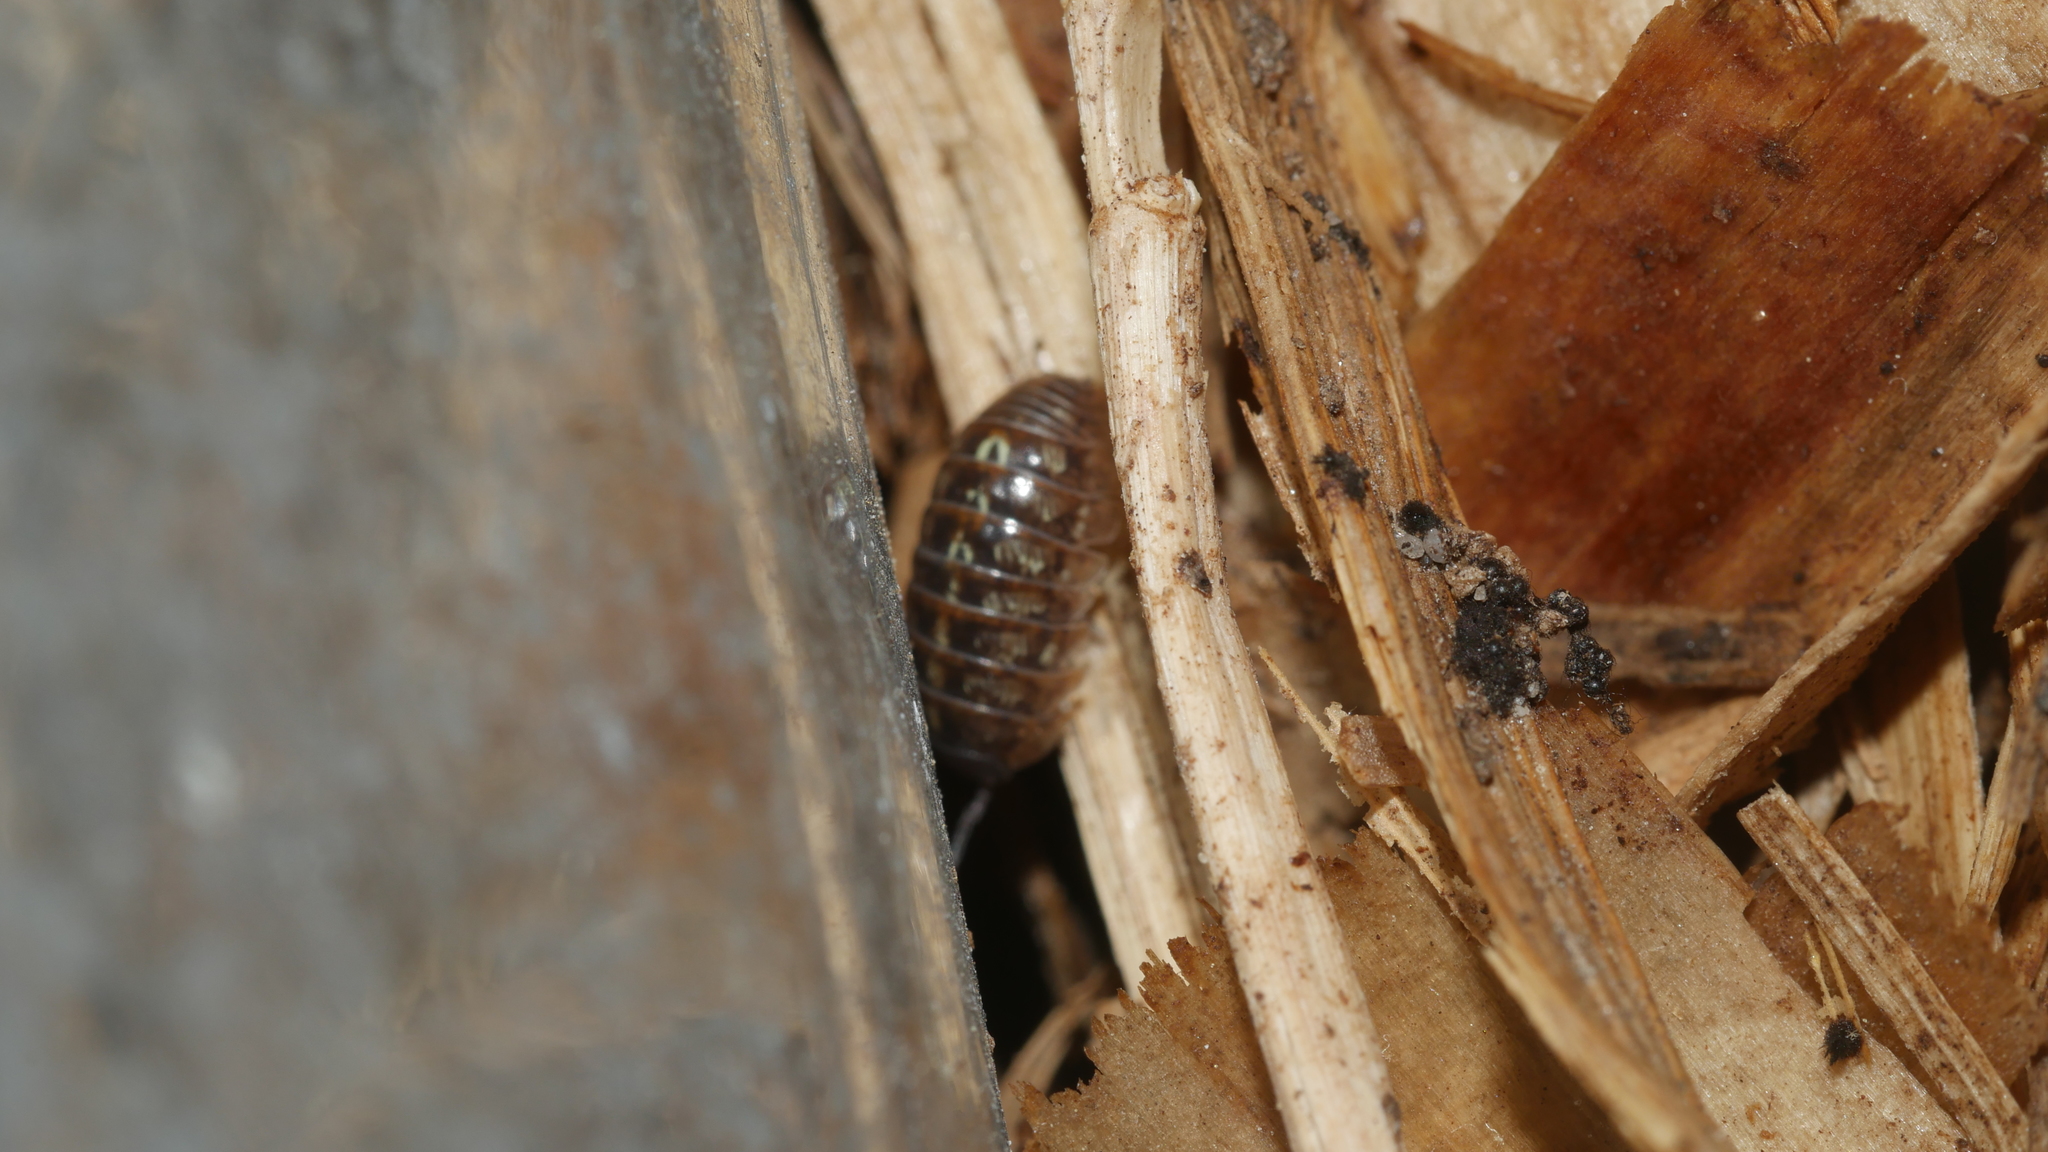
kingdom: Animalia
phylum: Arthropoda
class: Malacostraca
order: Isopoda
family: Armadillidiidae
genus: Armadillidium
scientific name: Armadillidium vulgare
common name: Common pill woodlouse
